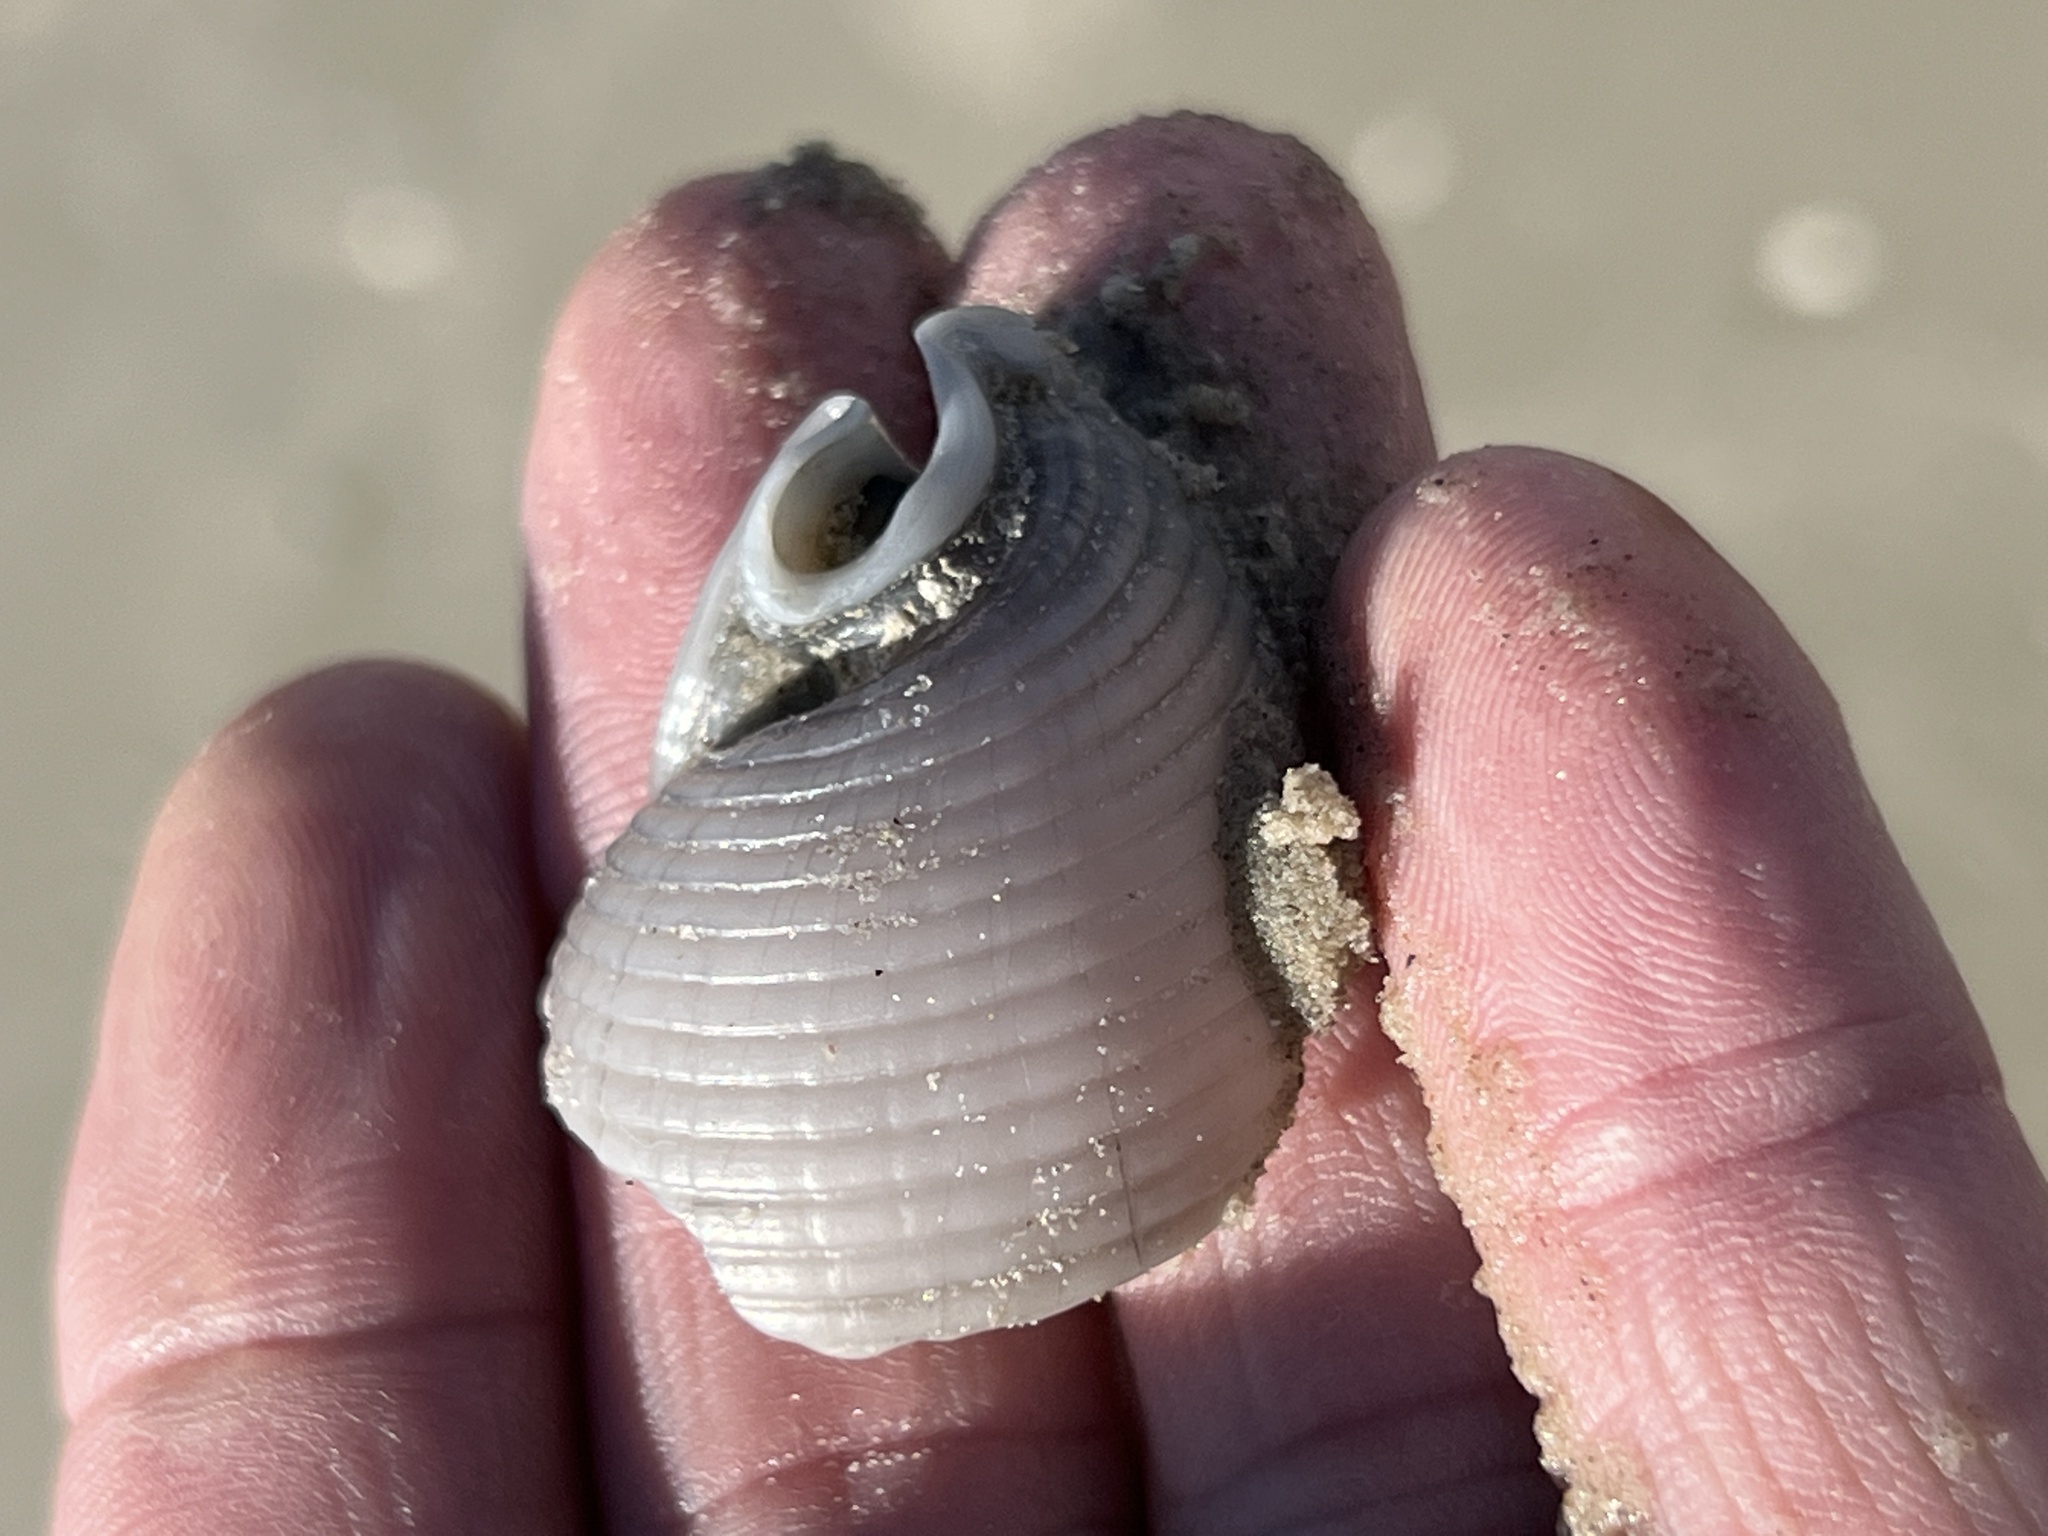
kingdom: Animalia
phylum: Mollusca
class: Gastropoda
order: Littorinimorpha
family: Cassidae
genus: Semicassis
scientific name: Semicassis granulata
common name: Scotch bonnet
